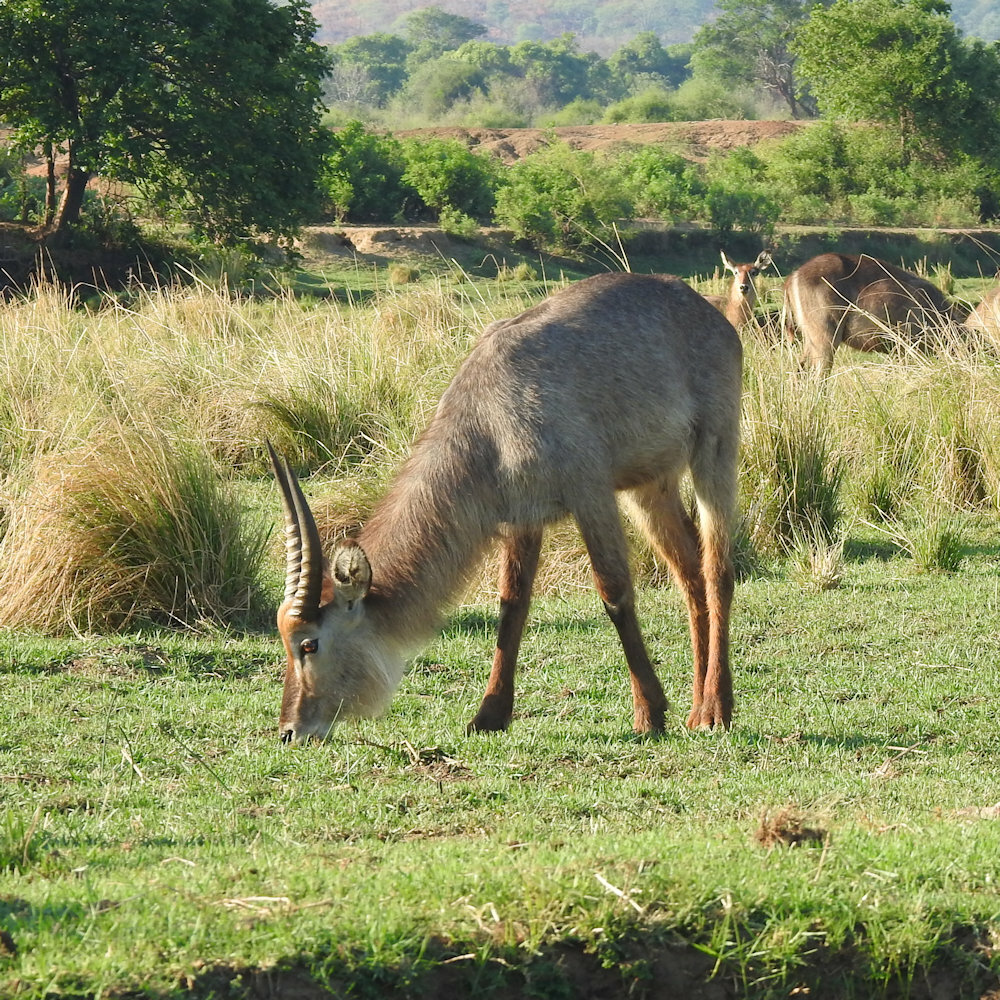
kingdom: Animalia
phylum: Chordata
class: Mammalia
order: Artiodactyla
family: Bovidae
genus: Kobus
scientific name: Kobus ellipsiprymnus
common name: Waterbuck
